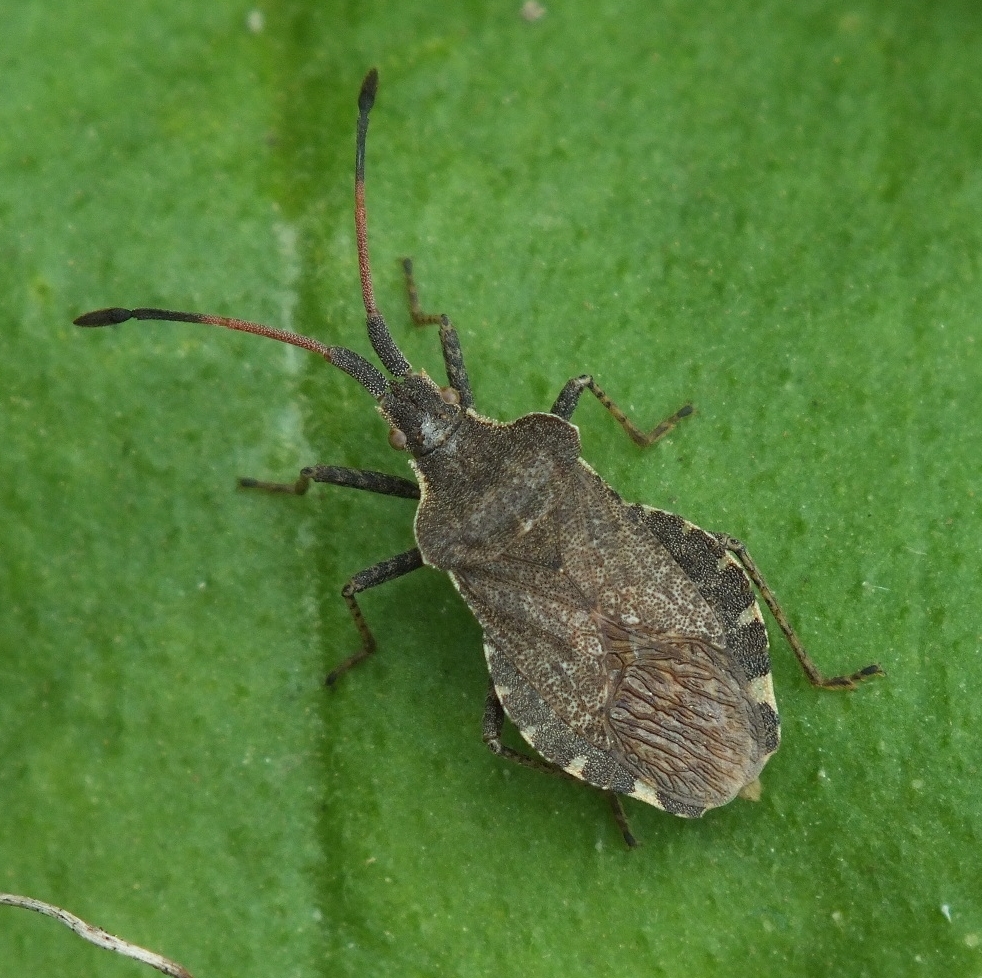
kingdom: Animalia
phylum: Arthropoda
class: Insecta
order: Hemiptera
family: Coreidae
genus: Enoplops
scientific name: Enoplops scapha
